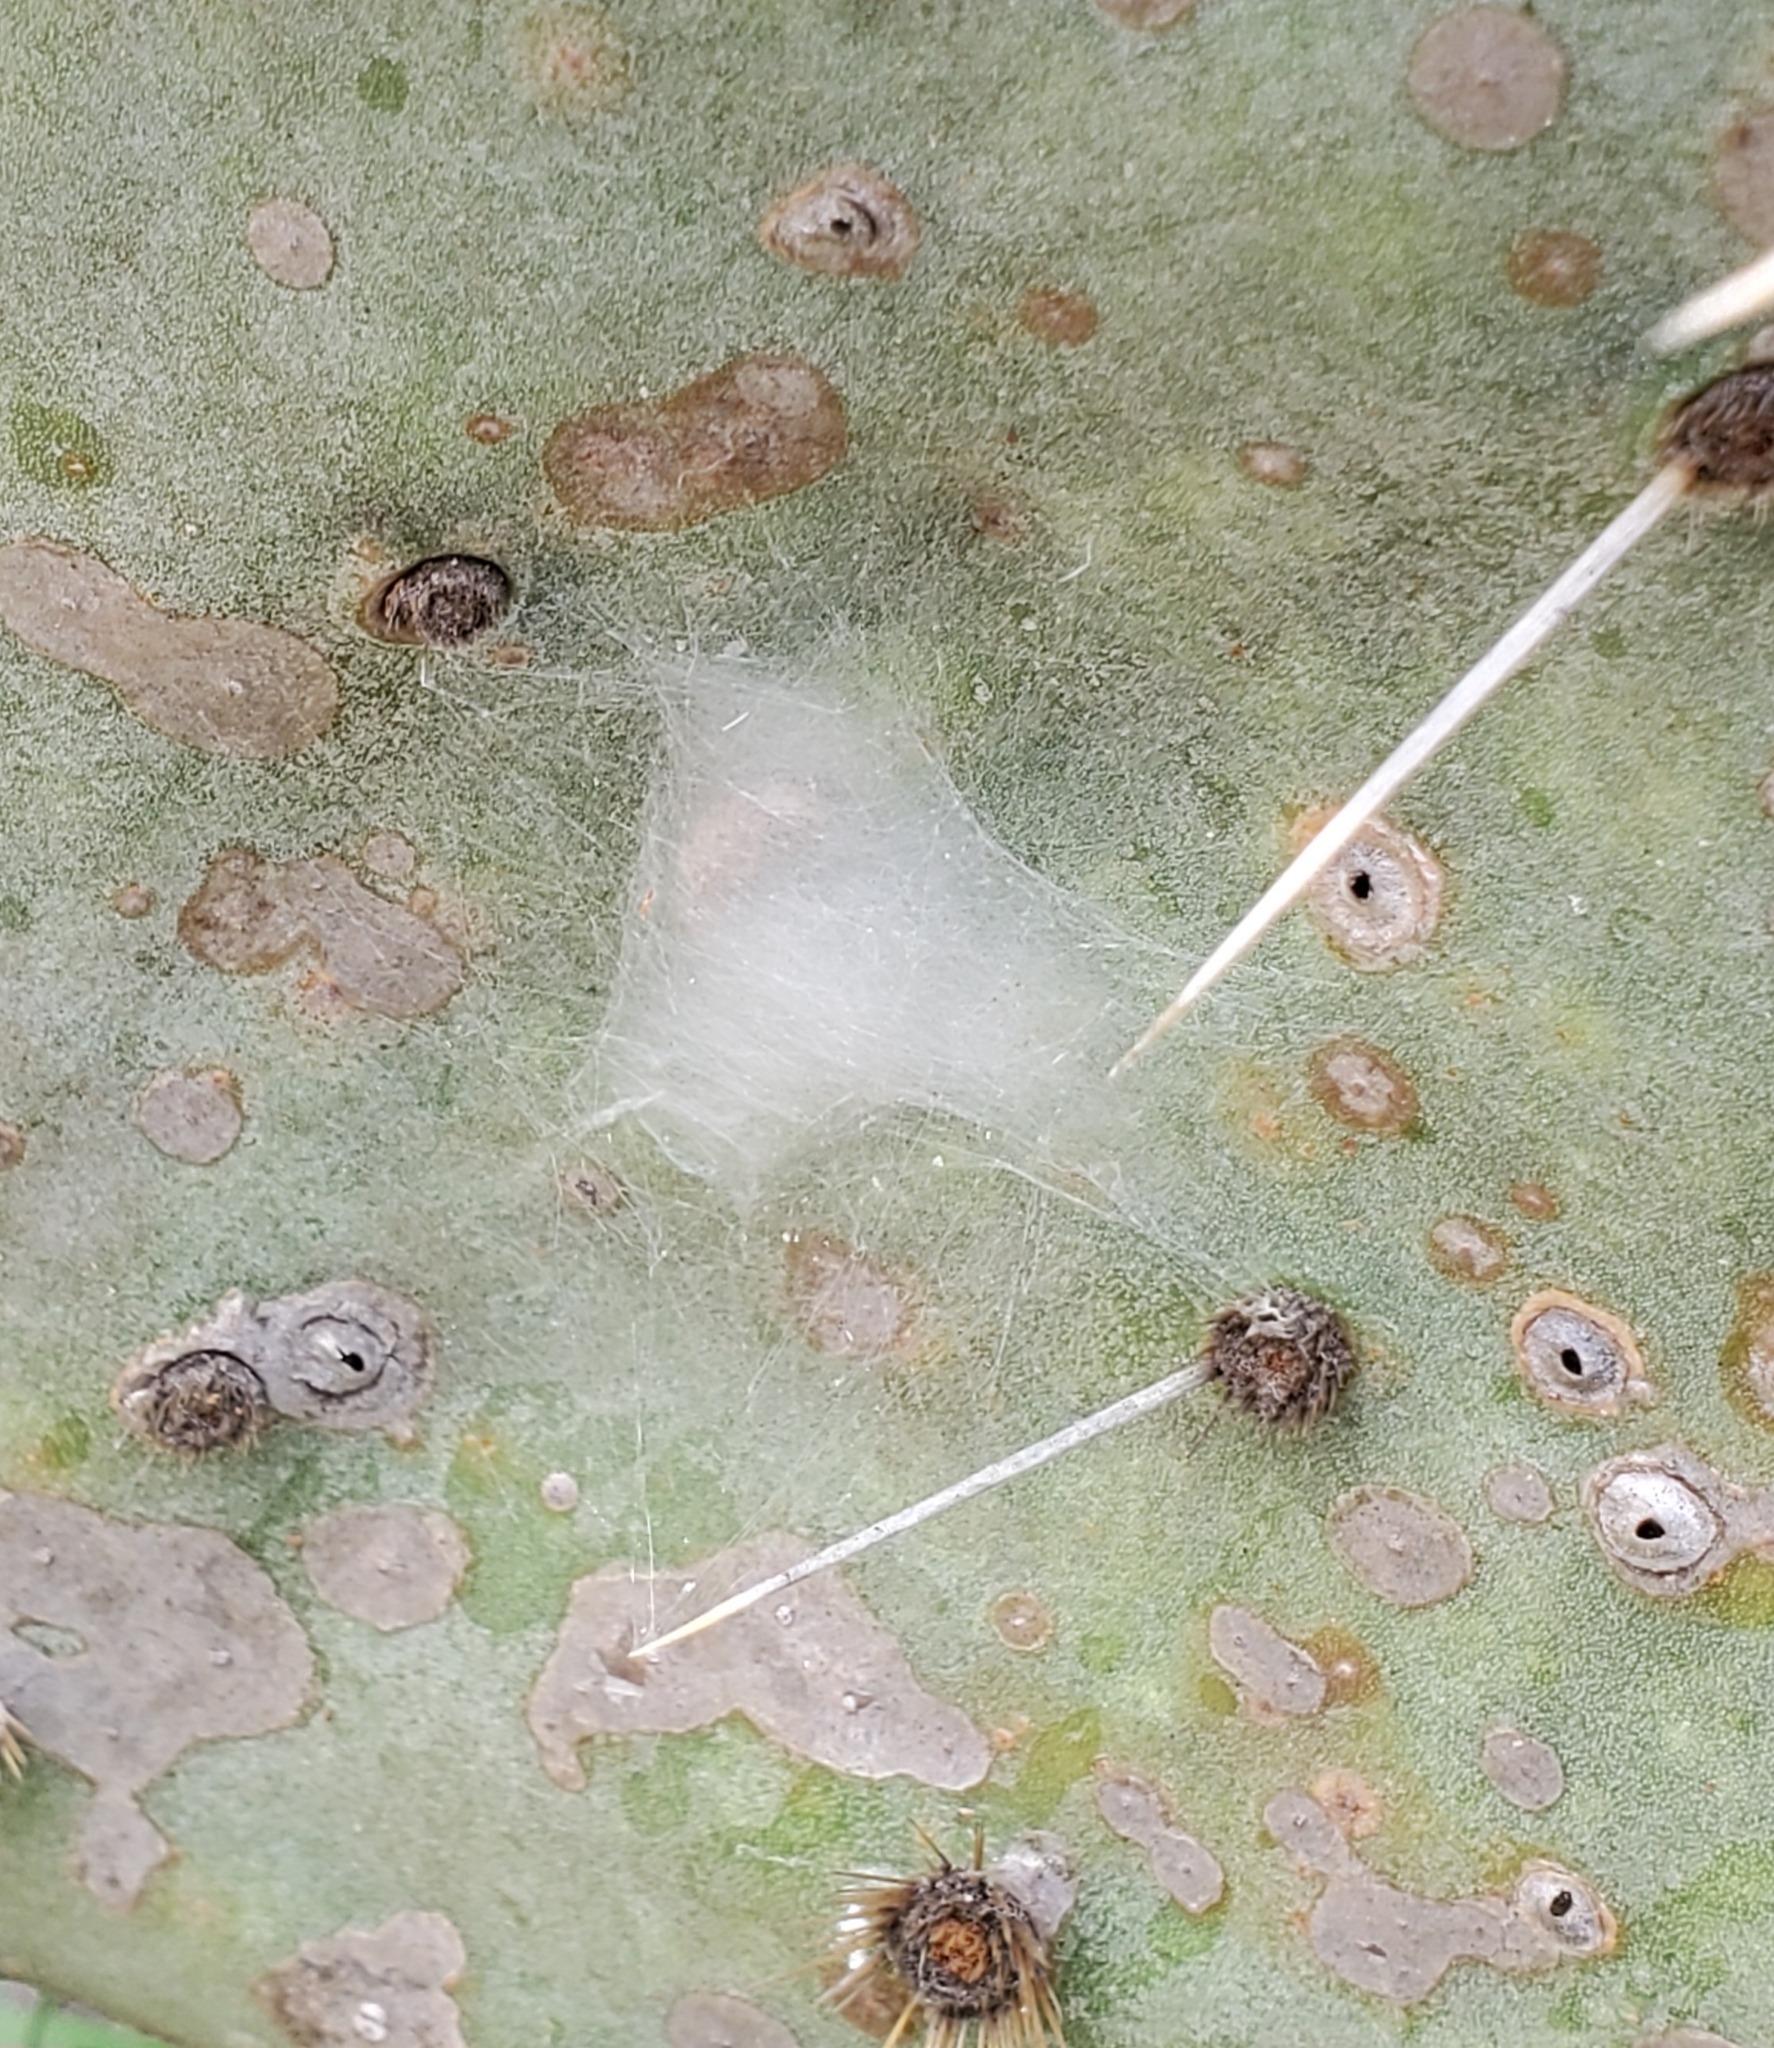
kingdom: Animalia
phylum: Arthropoda
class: Arachnida
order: Araneae
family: Salticidae
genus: Phidippus
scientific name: Phidippus arizonensis
